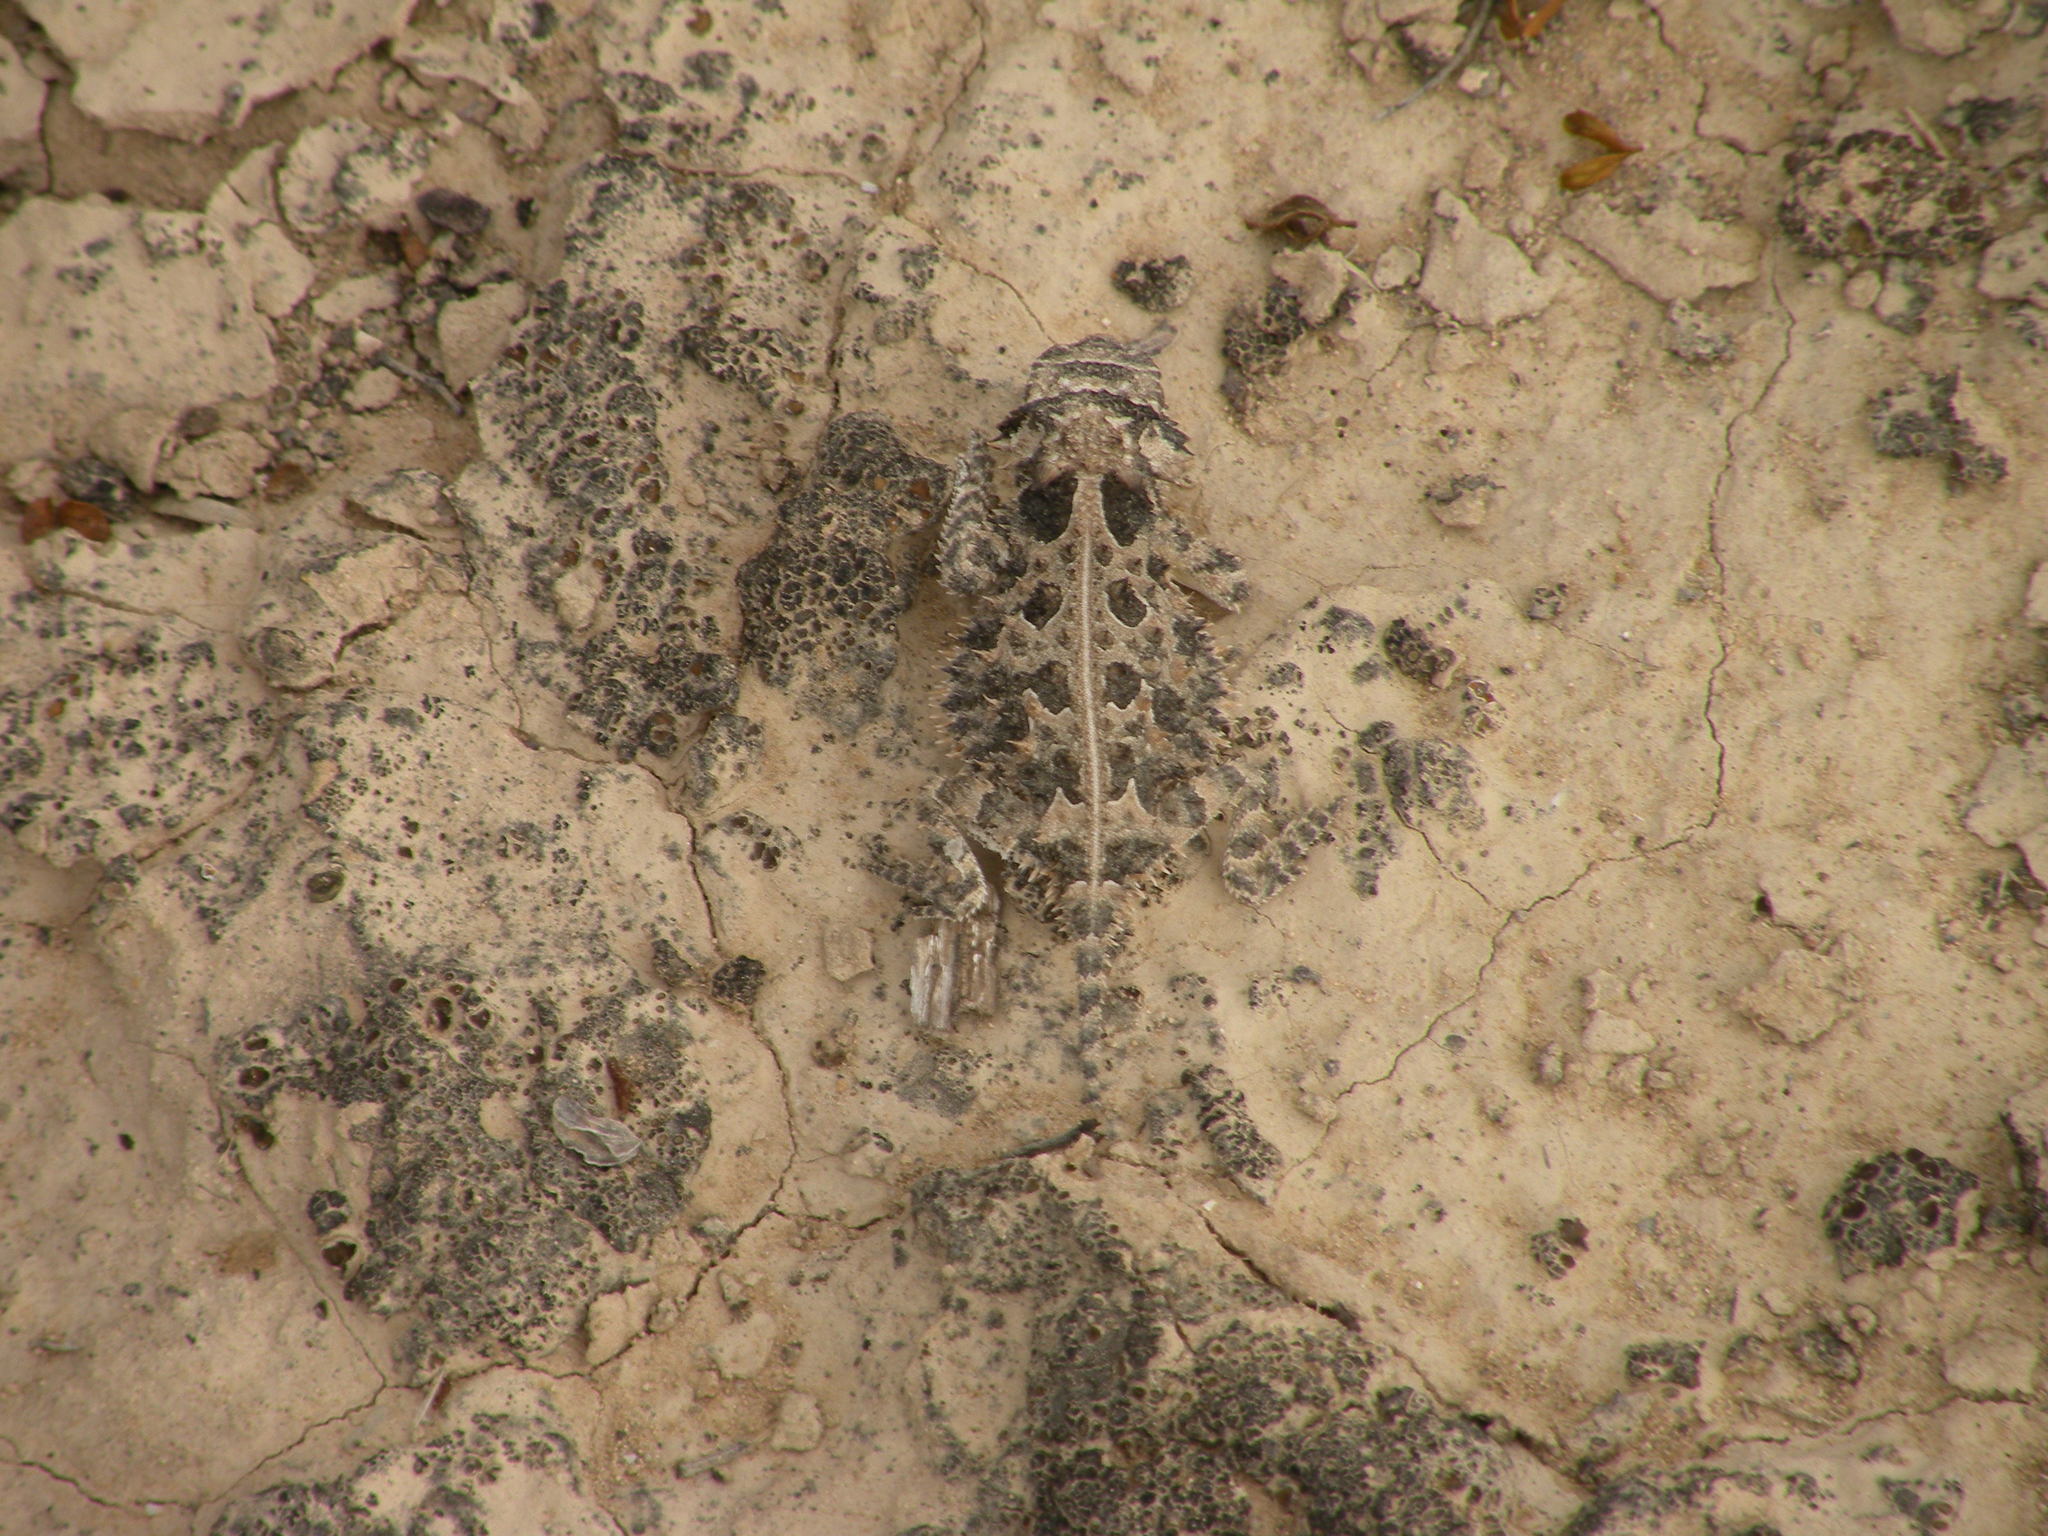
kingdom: Animalia
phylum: Chordata
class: Squamata
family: Phrynosomatidae
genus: Phrynosoma
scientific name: Phrynosoma cornutum
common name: Texas horned lizard
